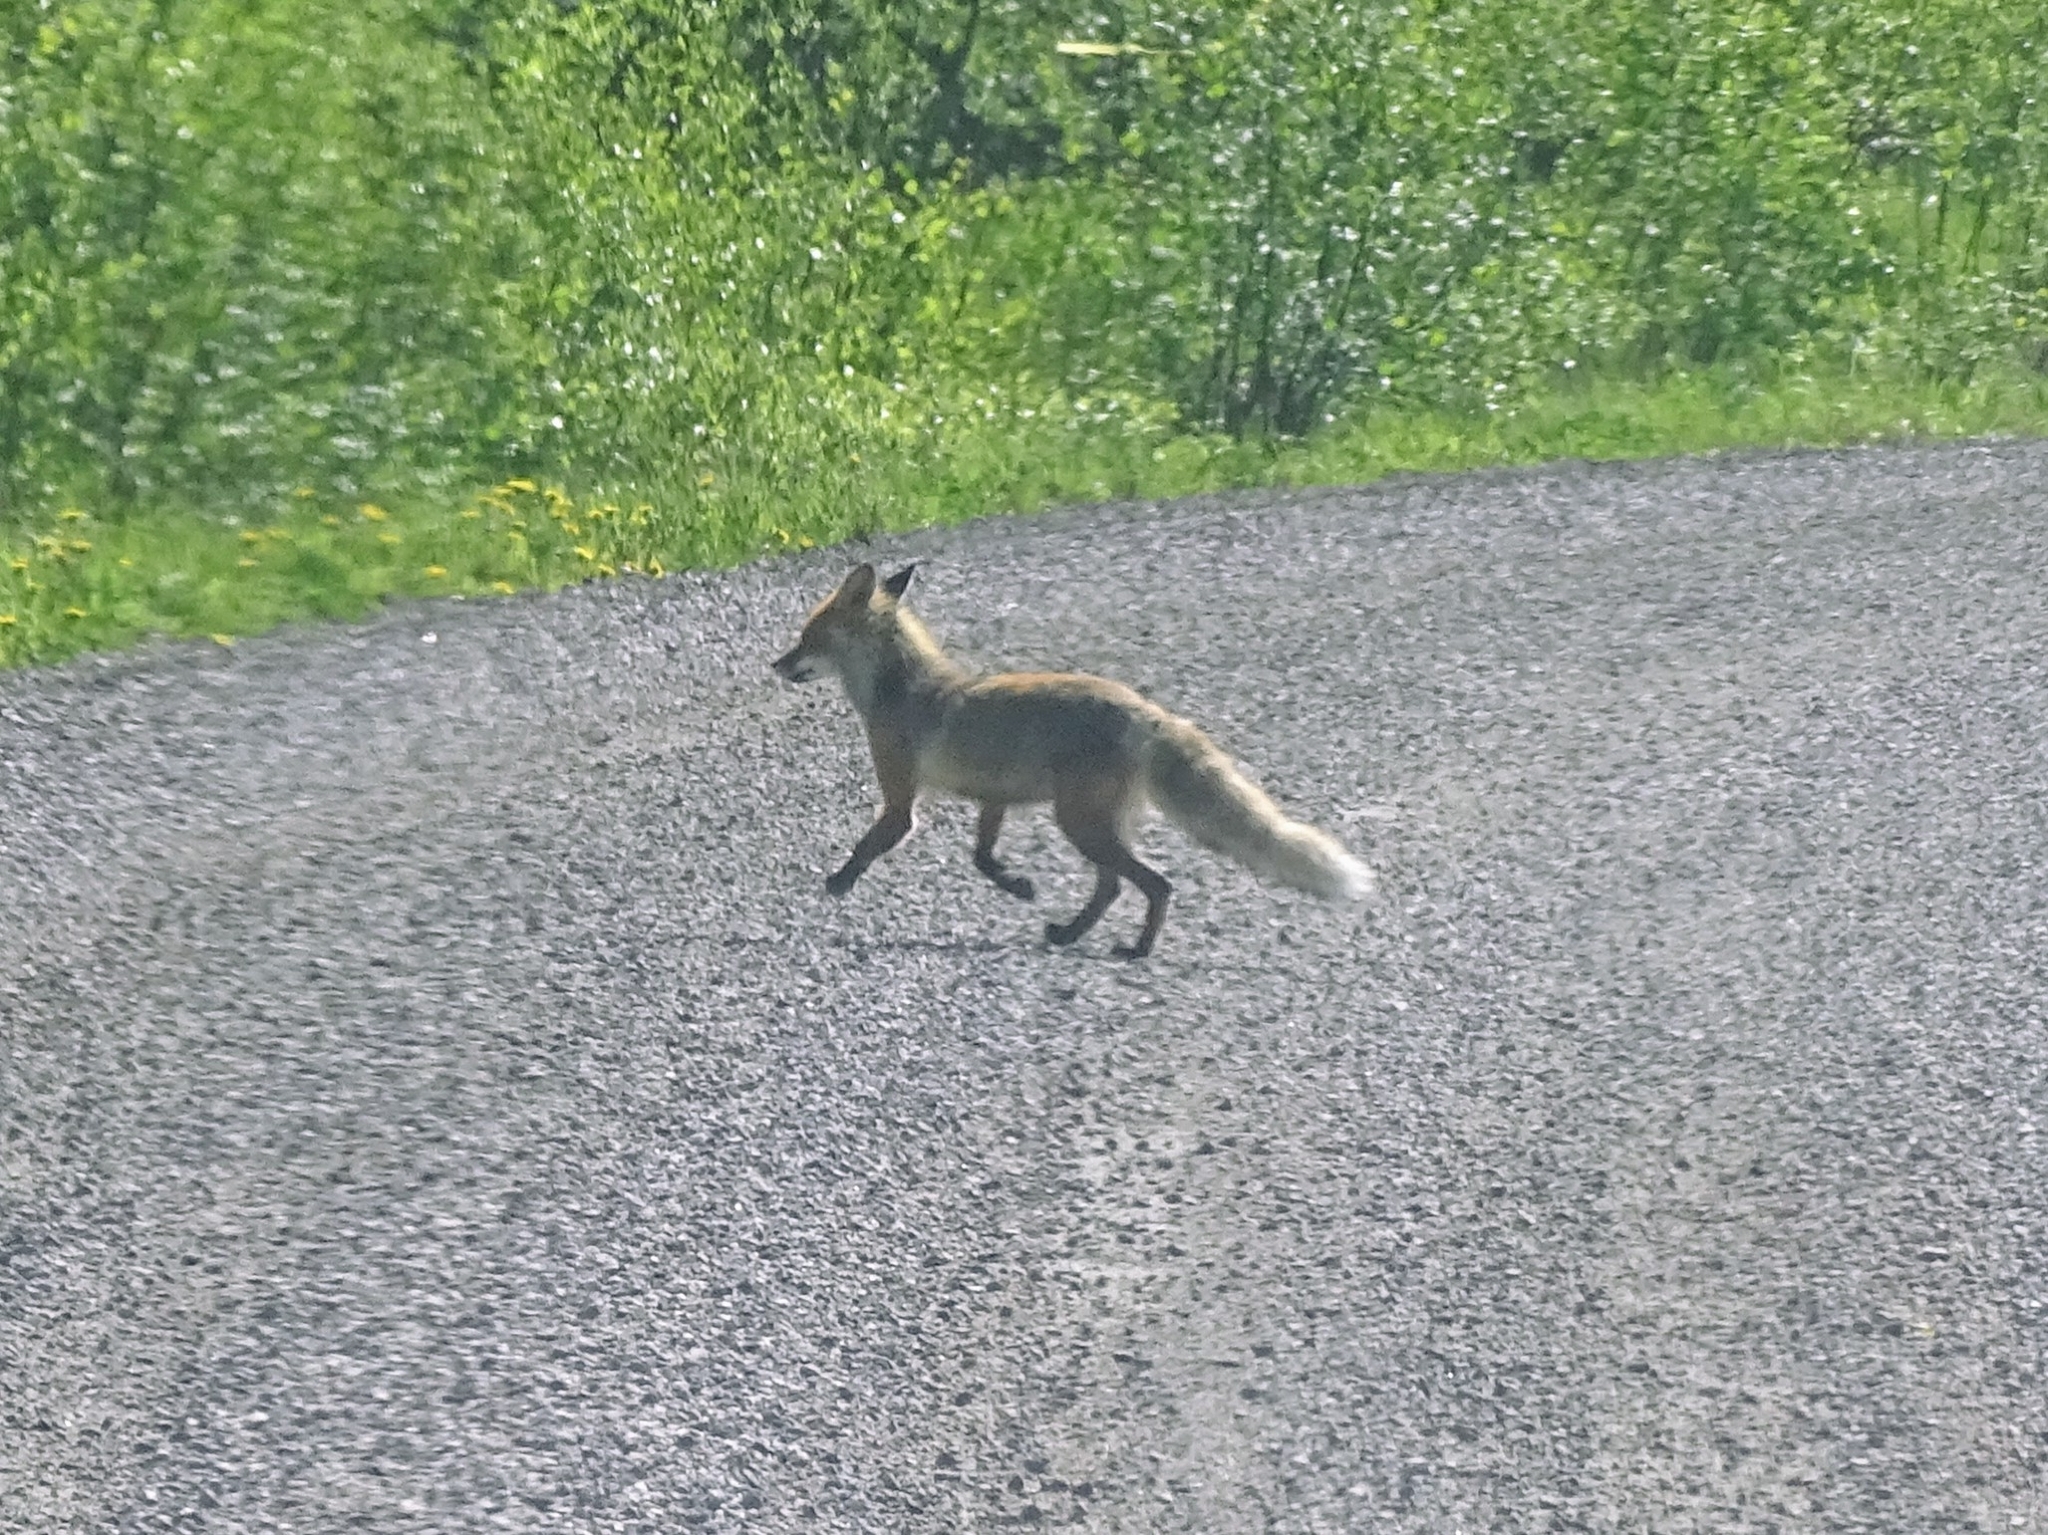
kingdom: Animalia
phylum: Chordata
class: Mammalia
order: Carnivora
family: Canidae
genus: Vulpes
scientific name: Vulpes vulpes
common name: Red fox
